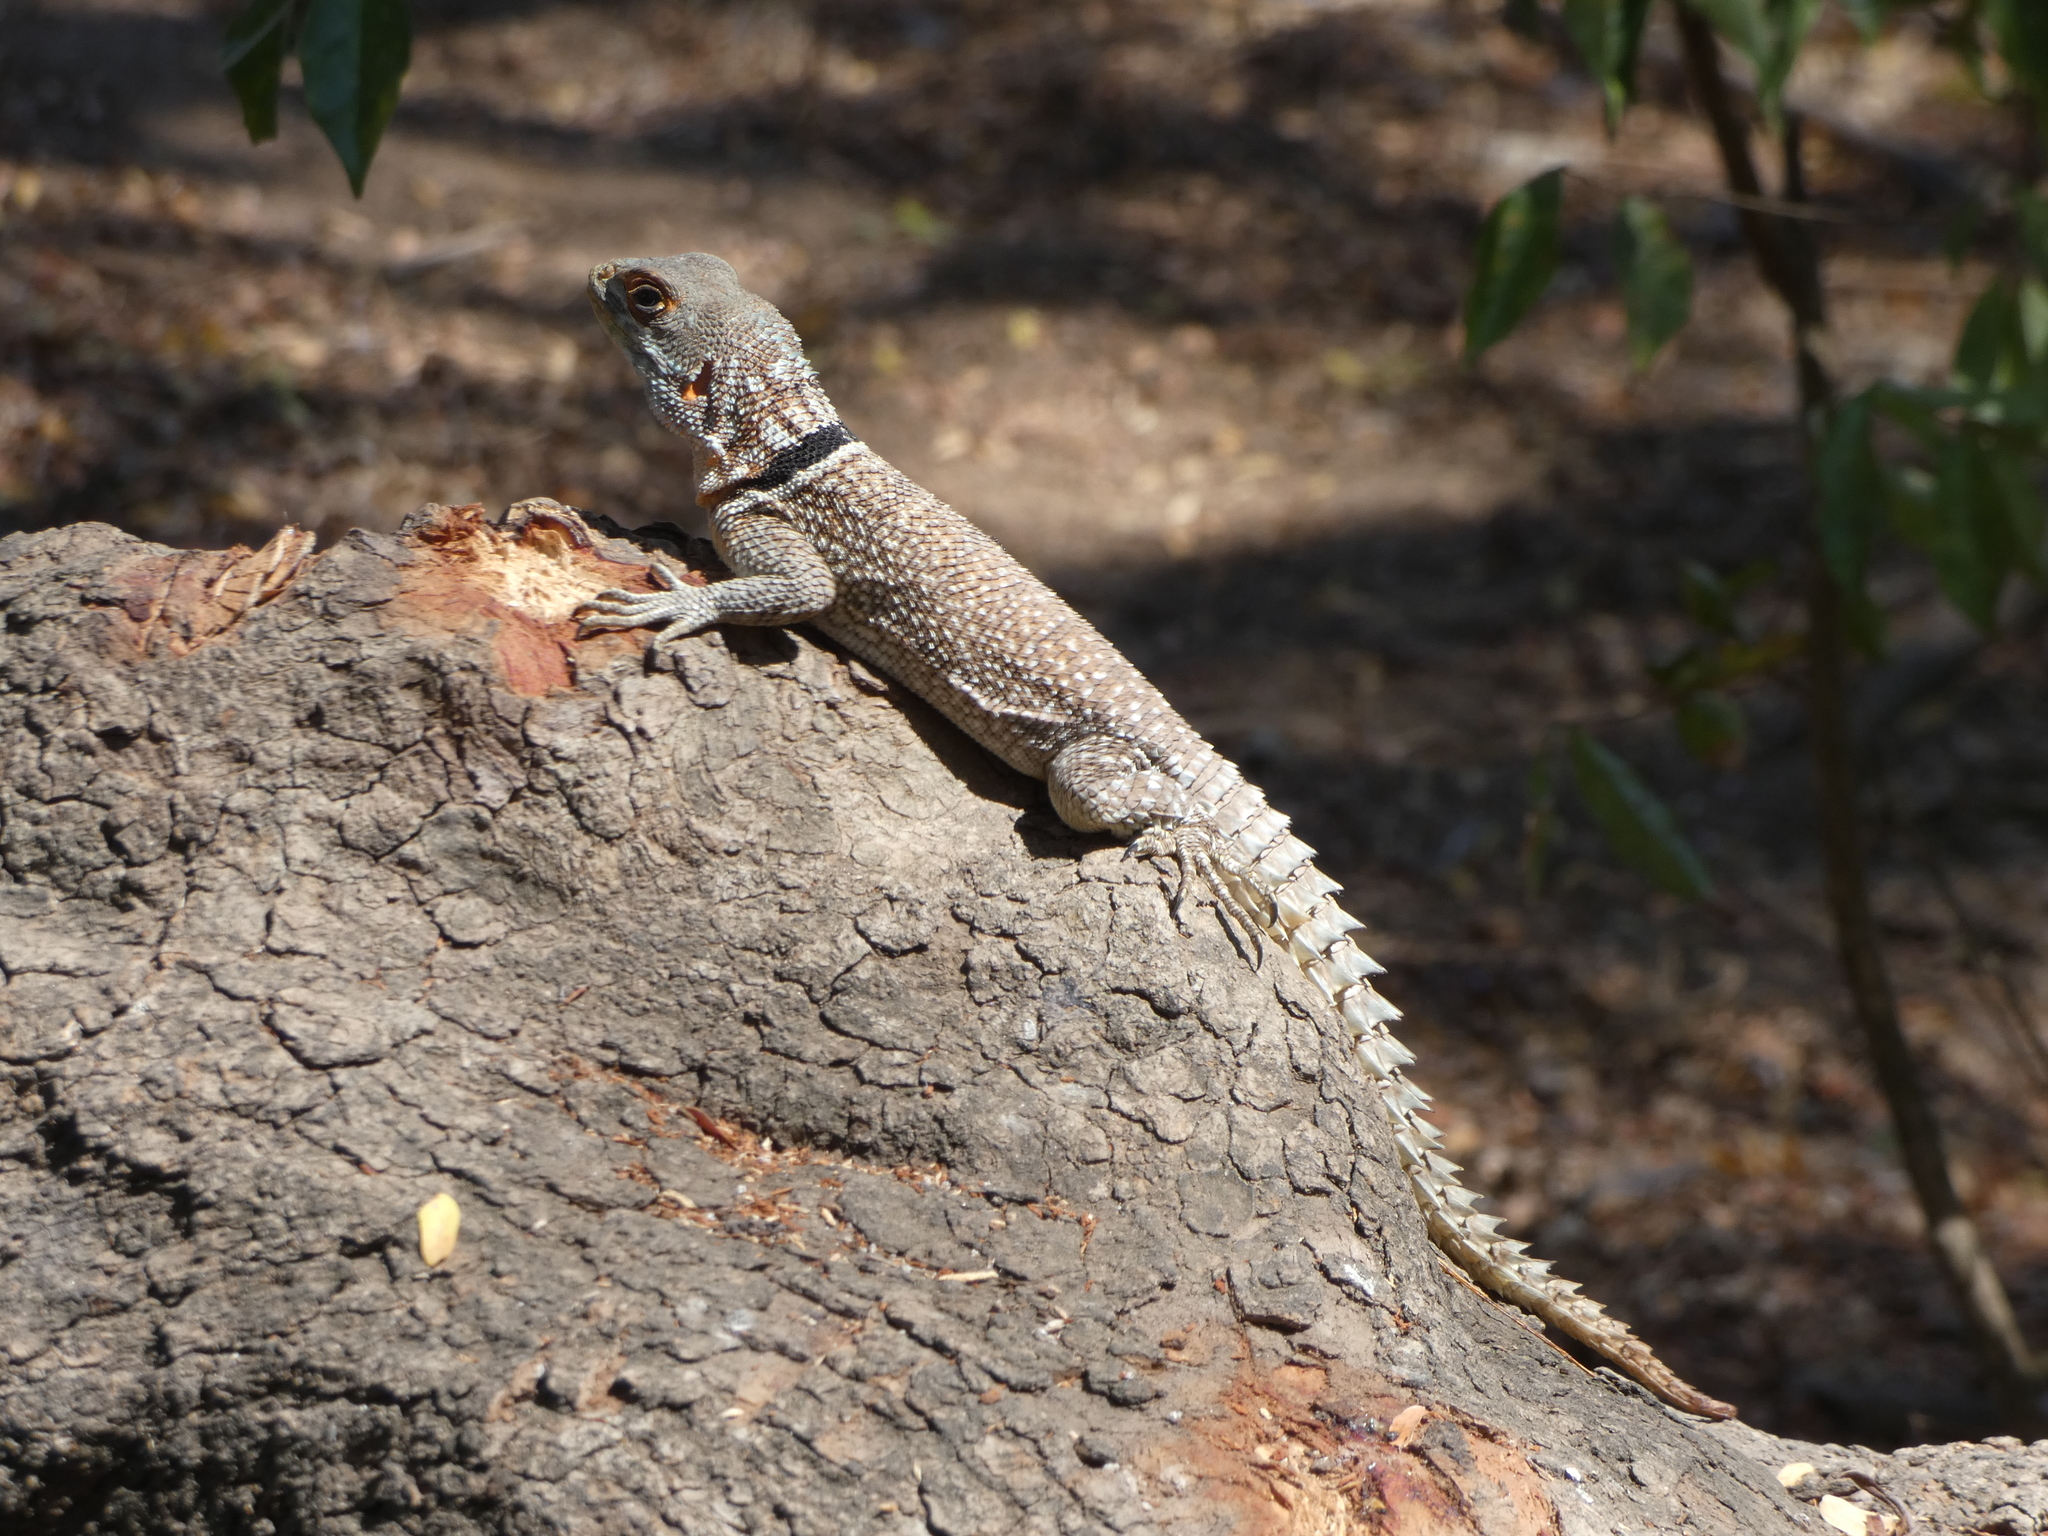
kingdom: Animalia
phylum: Chordata
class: Squamata
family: Opluridae
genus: Oplurus
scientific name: Oplurus cuvieri
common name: Cuvier's madagascar swift
